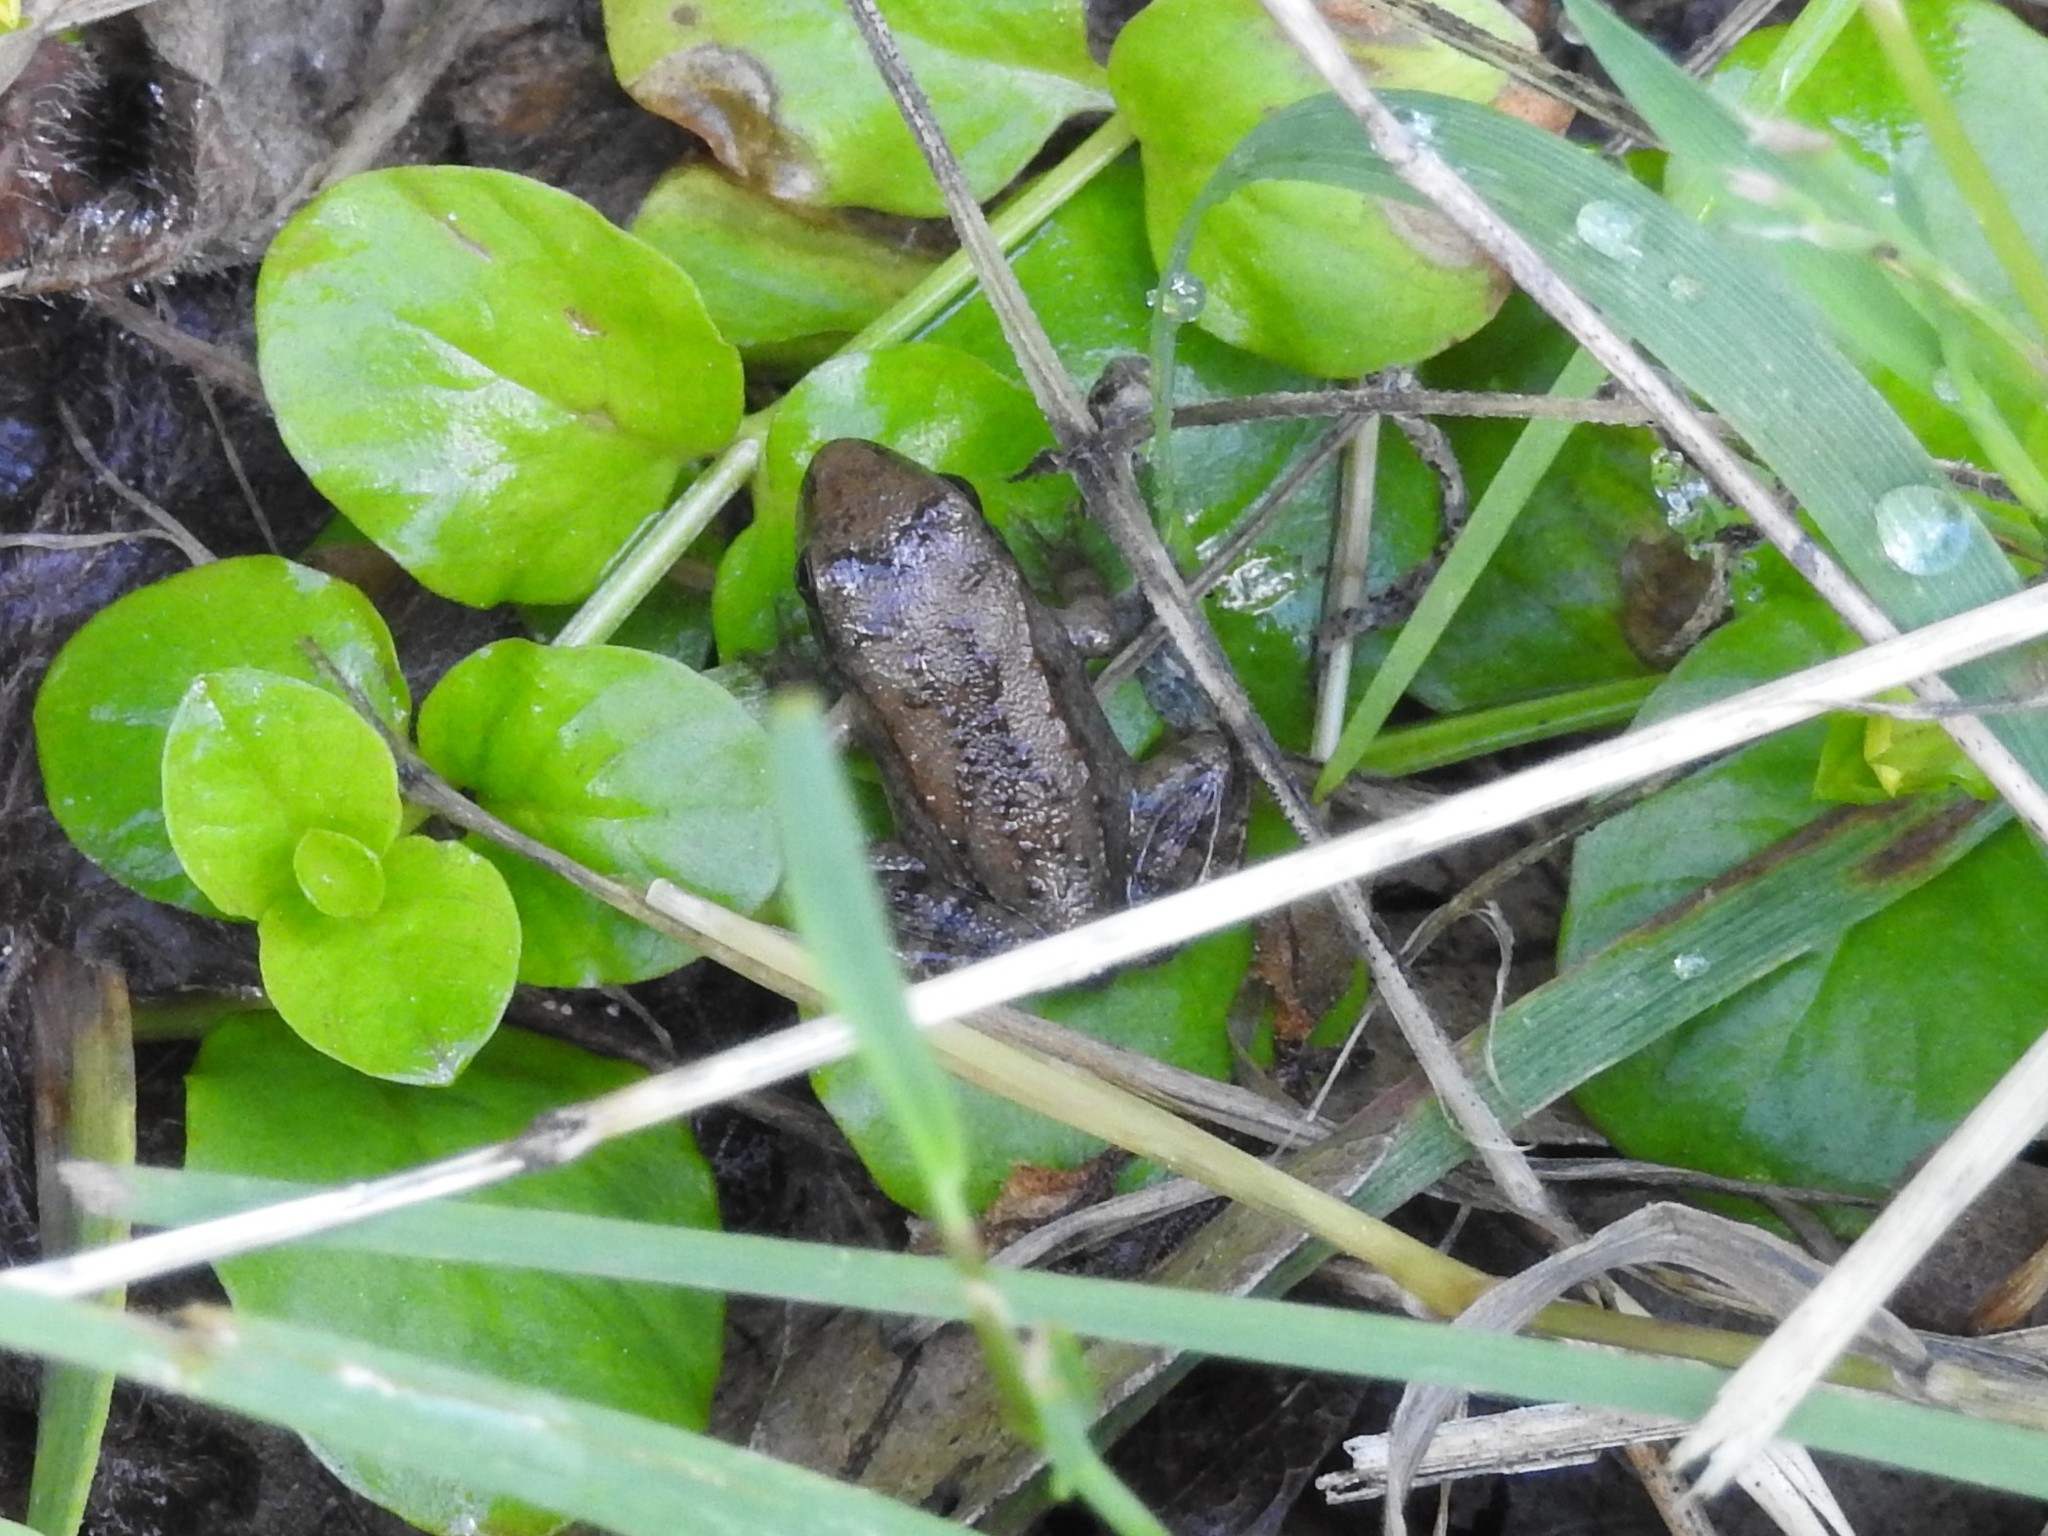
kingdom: Animalia
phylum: Chordata
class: Amphibia
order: Anura
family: Ranidae
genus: Lithobates
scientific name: Lithobates
